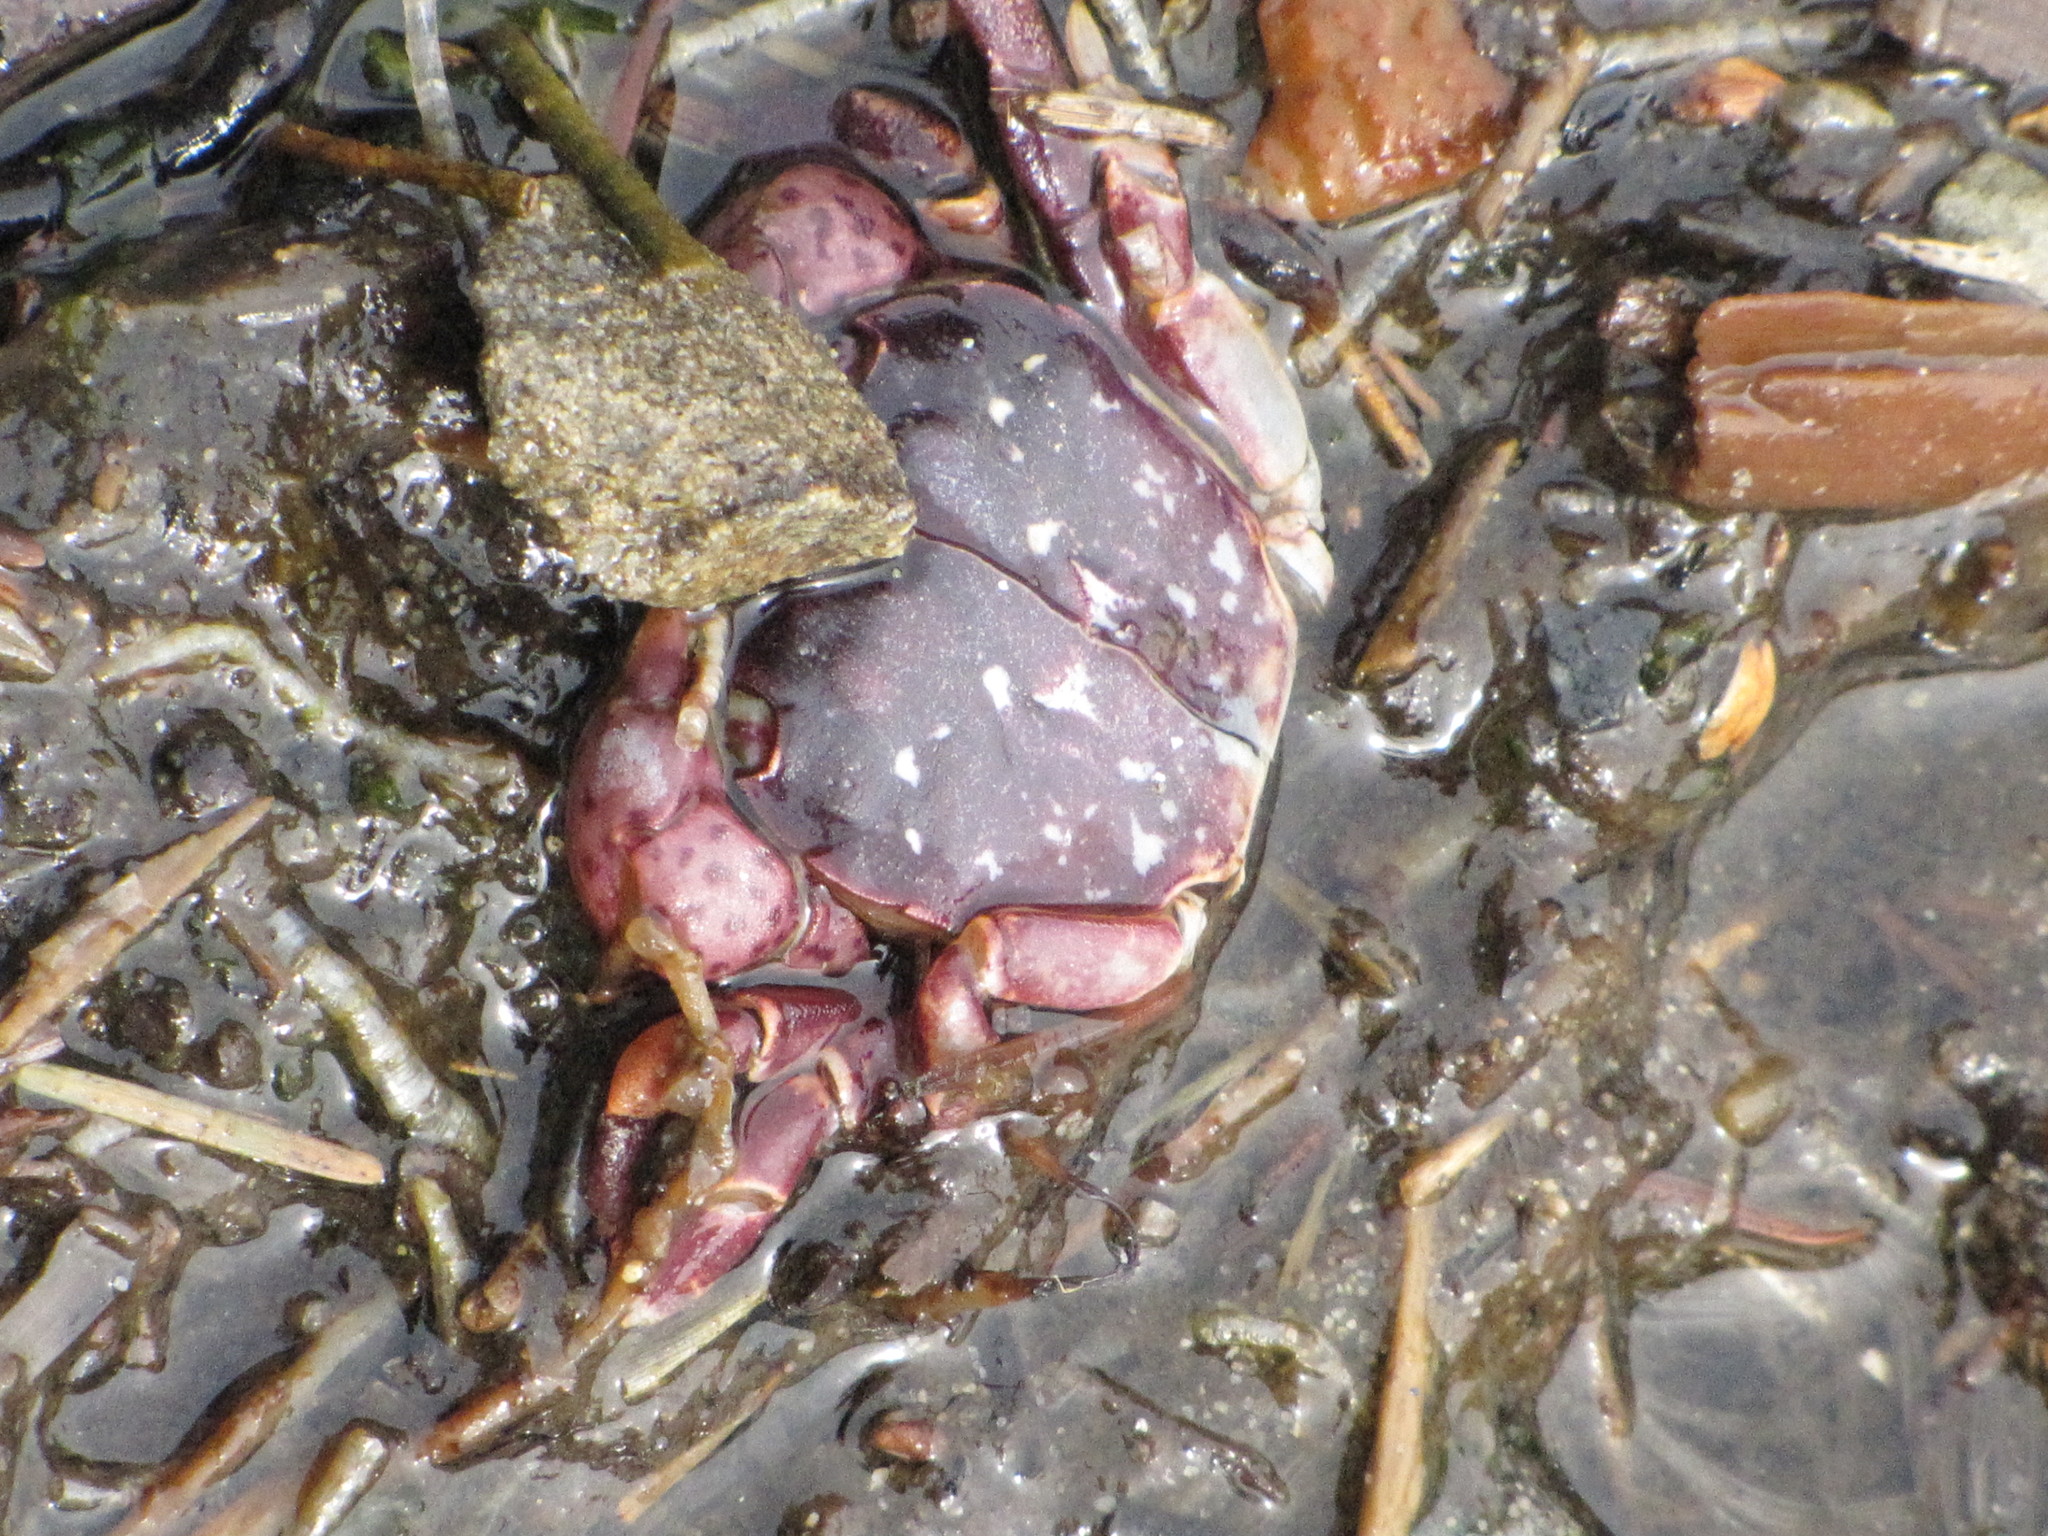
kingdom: Animalia
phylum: Arthropoda
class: Malacostraca
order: Decapoda
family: Varunidae
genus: Hemigrapsus
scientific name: Hemigrapsus nudus
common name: Purple shore crab
